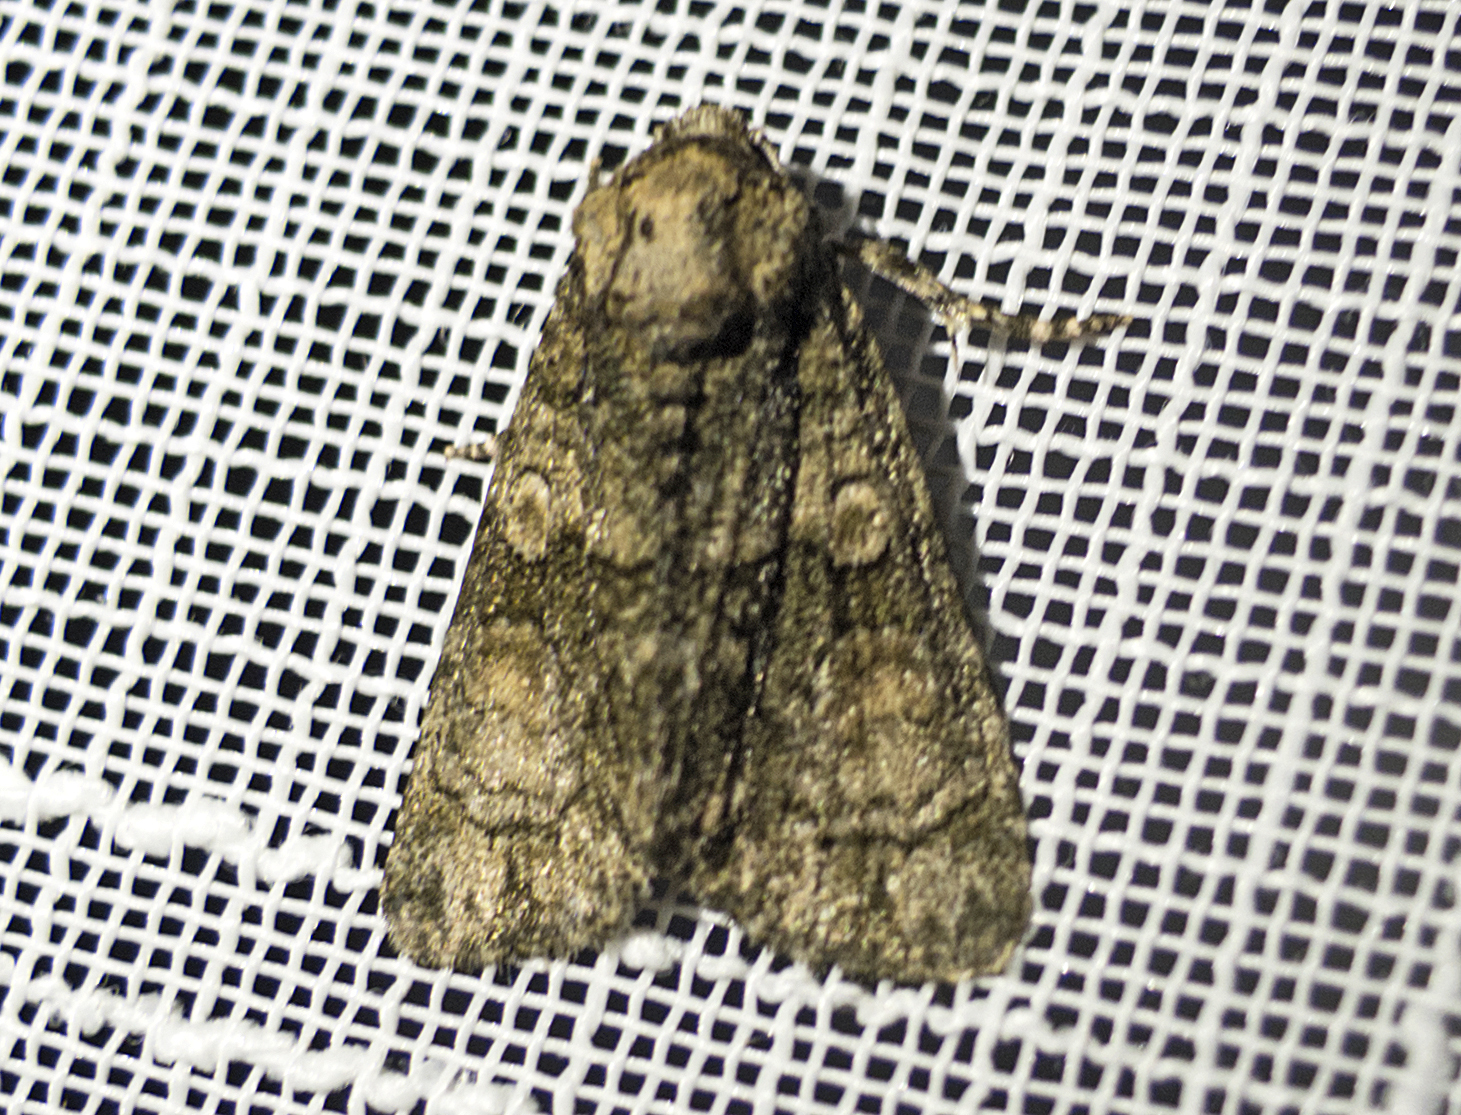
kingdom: Animalia
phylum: Arthropoda
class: Insecta
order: Lepidoptera
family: Noctuidae
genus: Craniophora
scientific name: Craniophora ligustri
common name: Coronet
